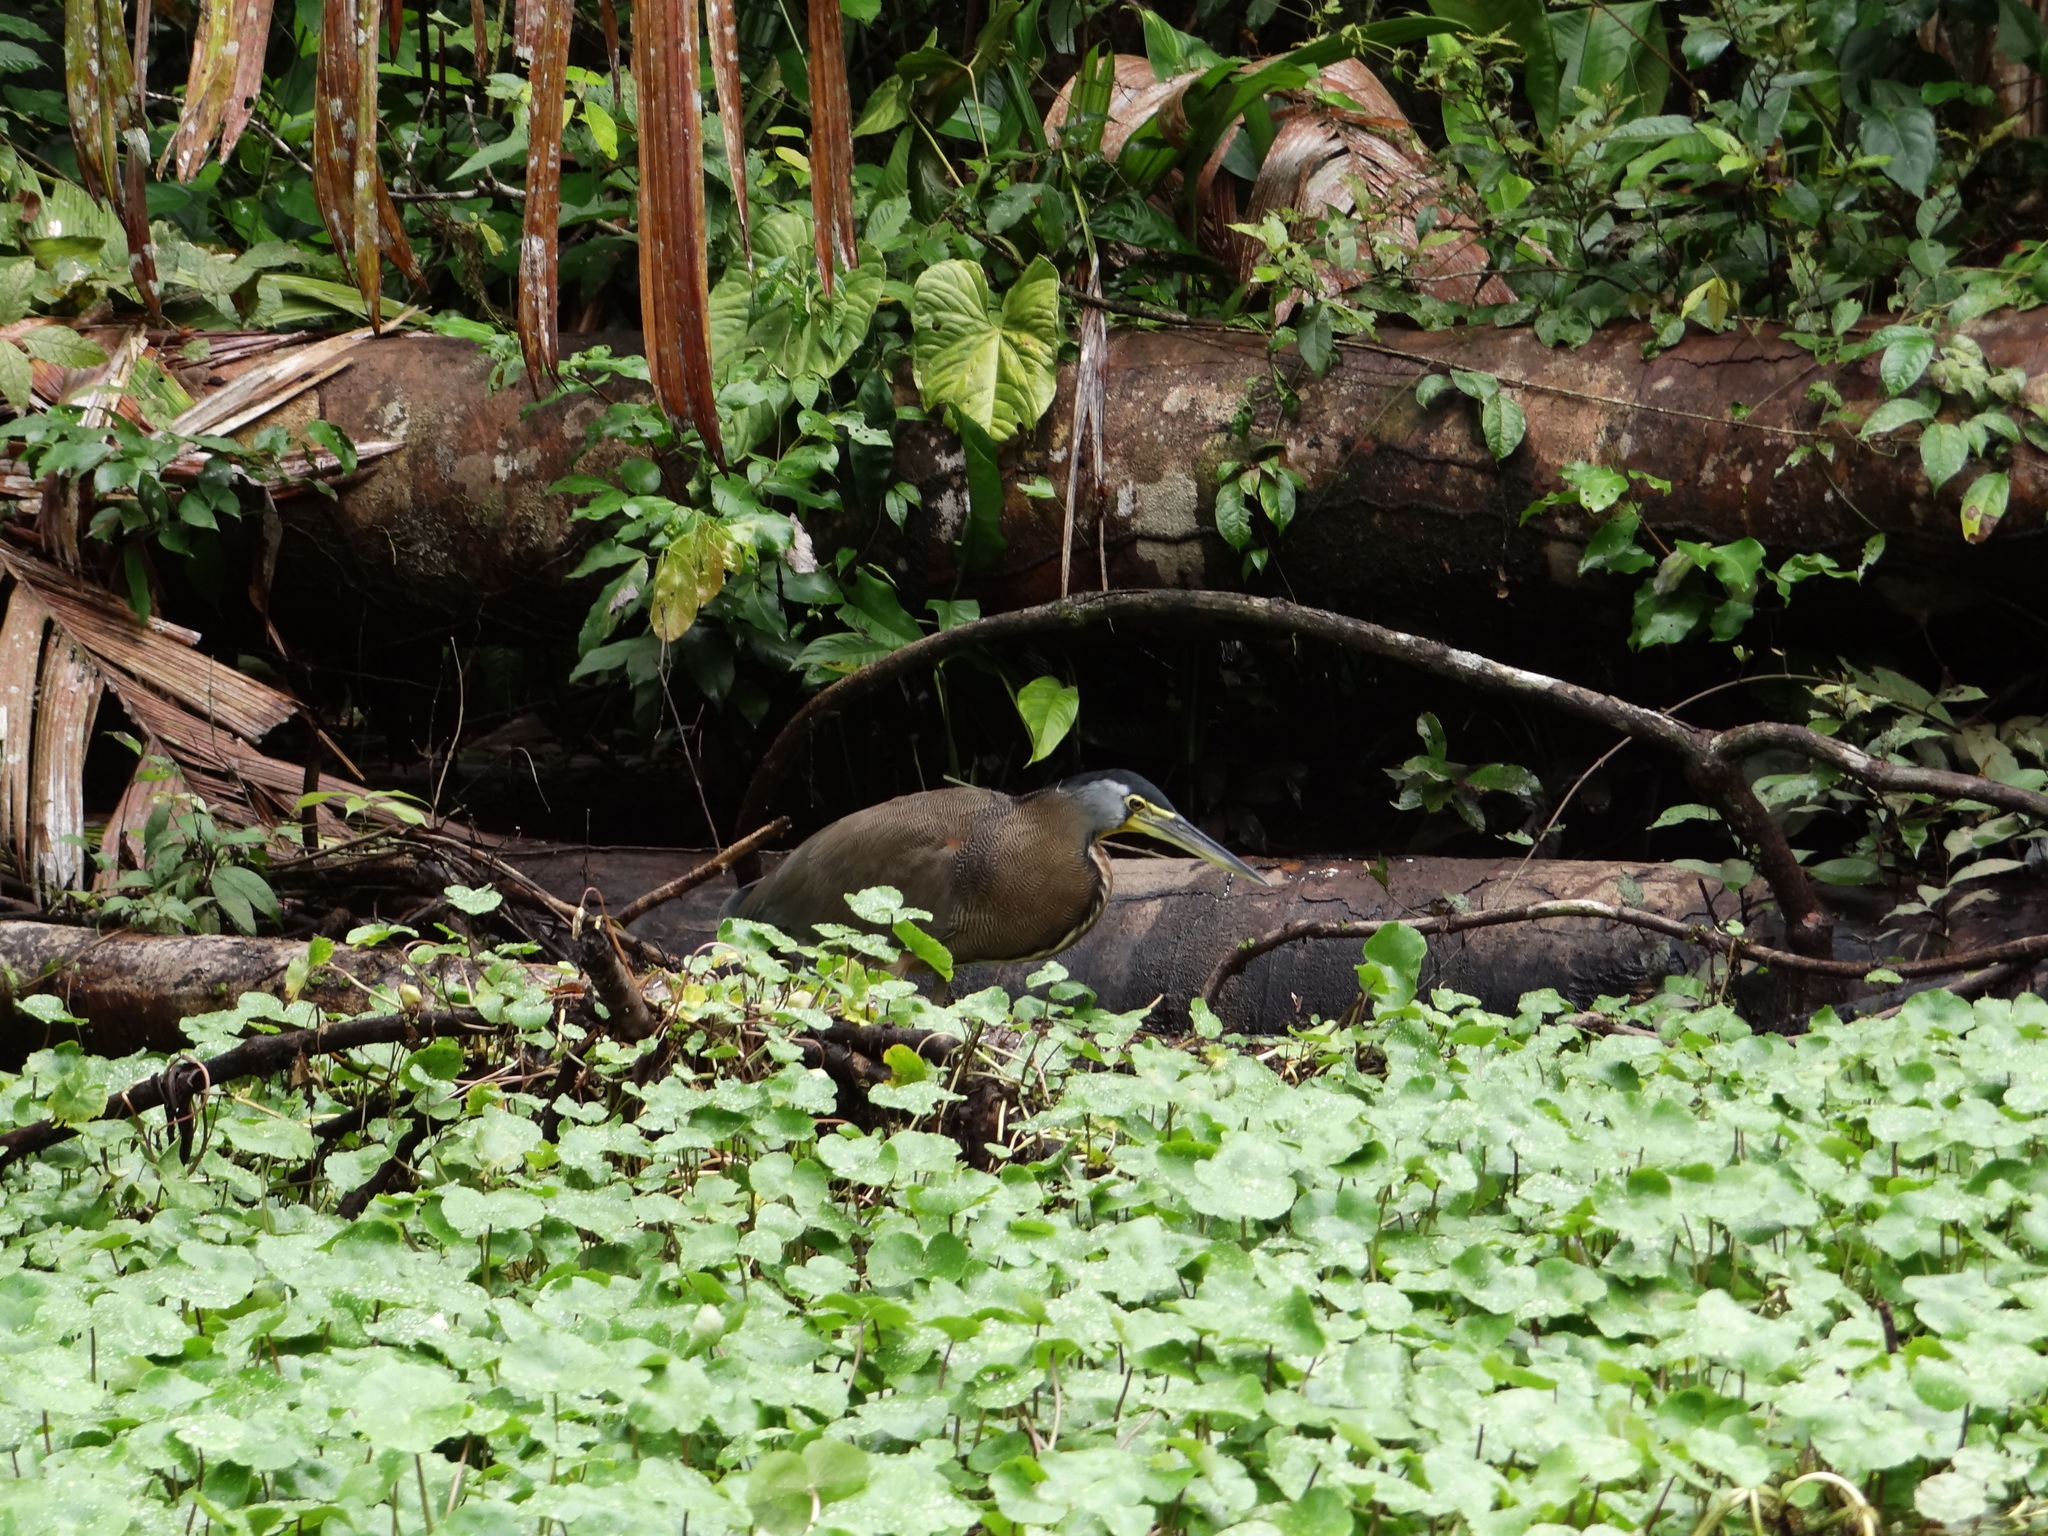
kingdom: Animalia
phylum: Chordata
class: Aves
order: Pelecaniformes
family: Ardeidae
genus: Tigrisoma
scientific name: Tigrisoma mexicanum
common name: Bare-throated tiger-heron
